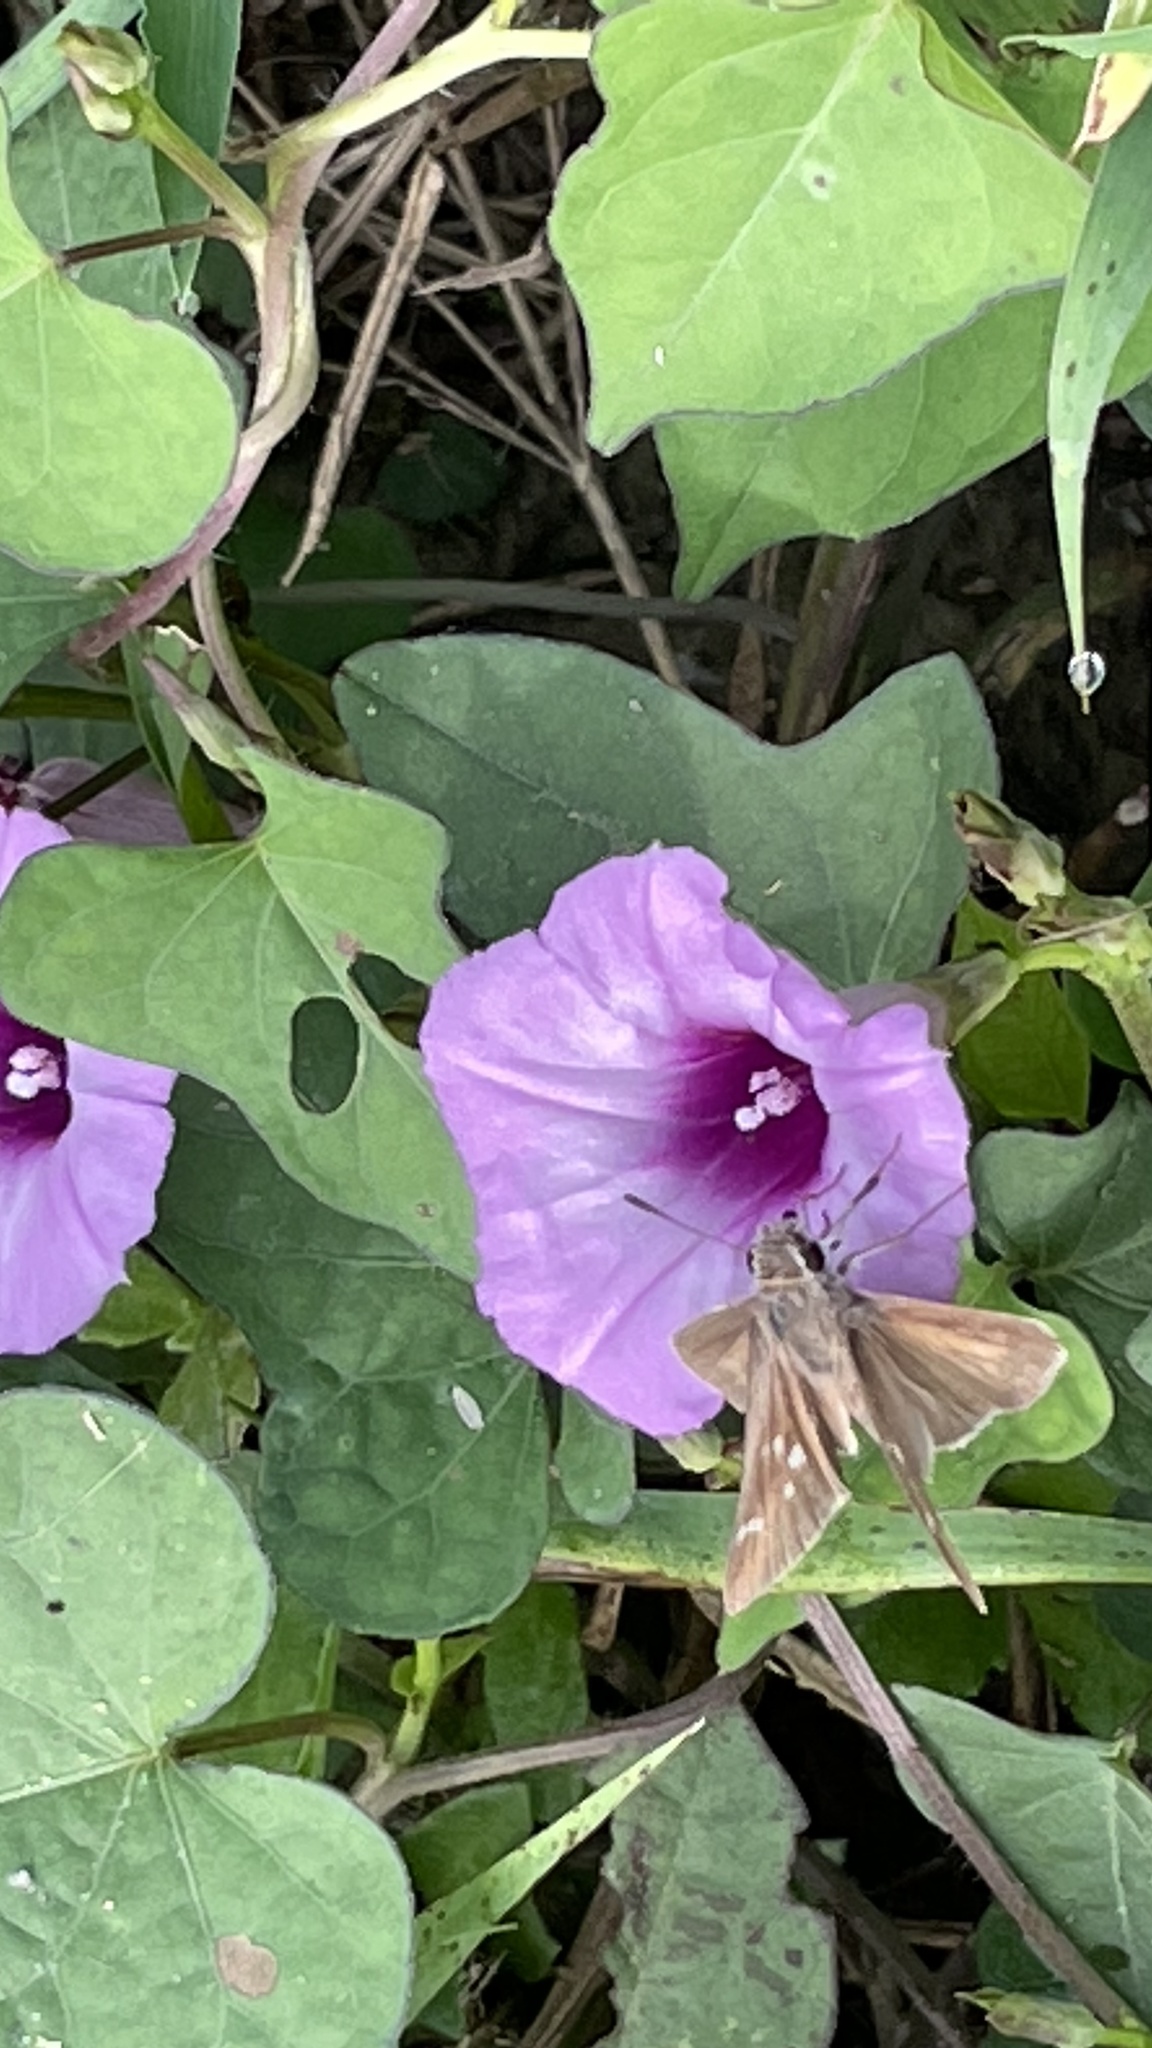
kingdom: Plantae
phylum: Tracheophyta
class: Magnoliopsida
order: Solanales
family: Convolvulaceae
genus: Ipomoea
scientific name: Ipomoea cordatotriloba
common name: Cotton morning glory
